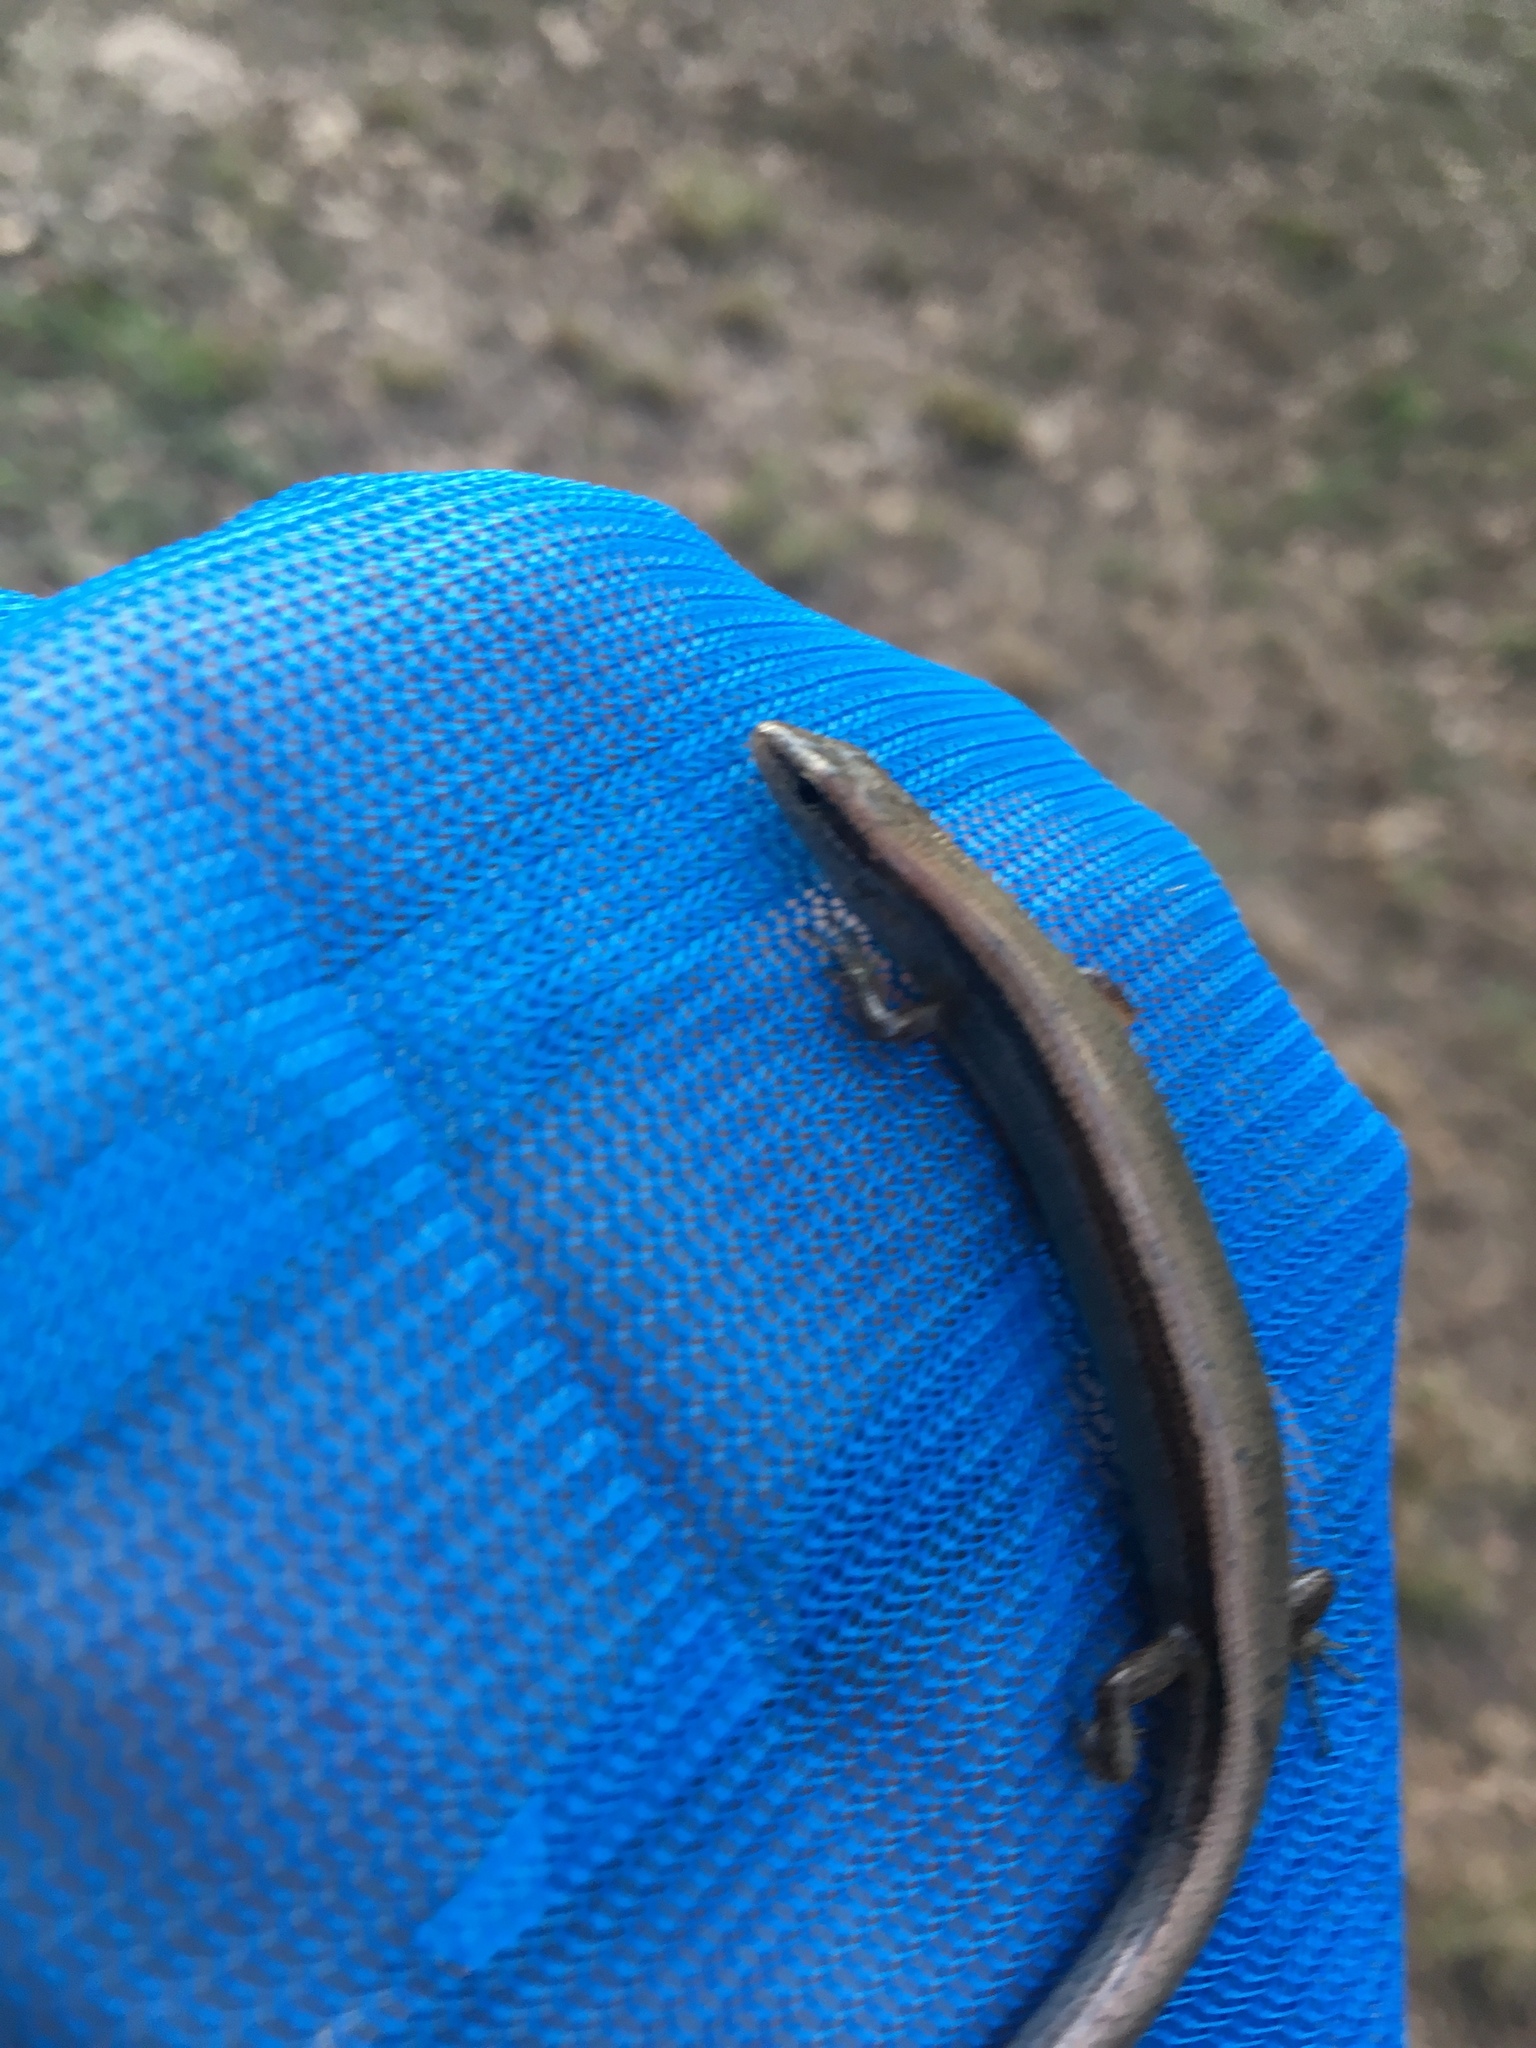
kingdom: Animalia
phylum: Chordata
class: Squamata
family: Scincidae
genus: Scincella
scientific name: Scincella lateralis
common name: Ground skink
